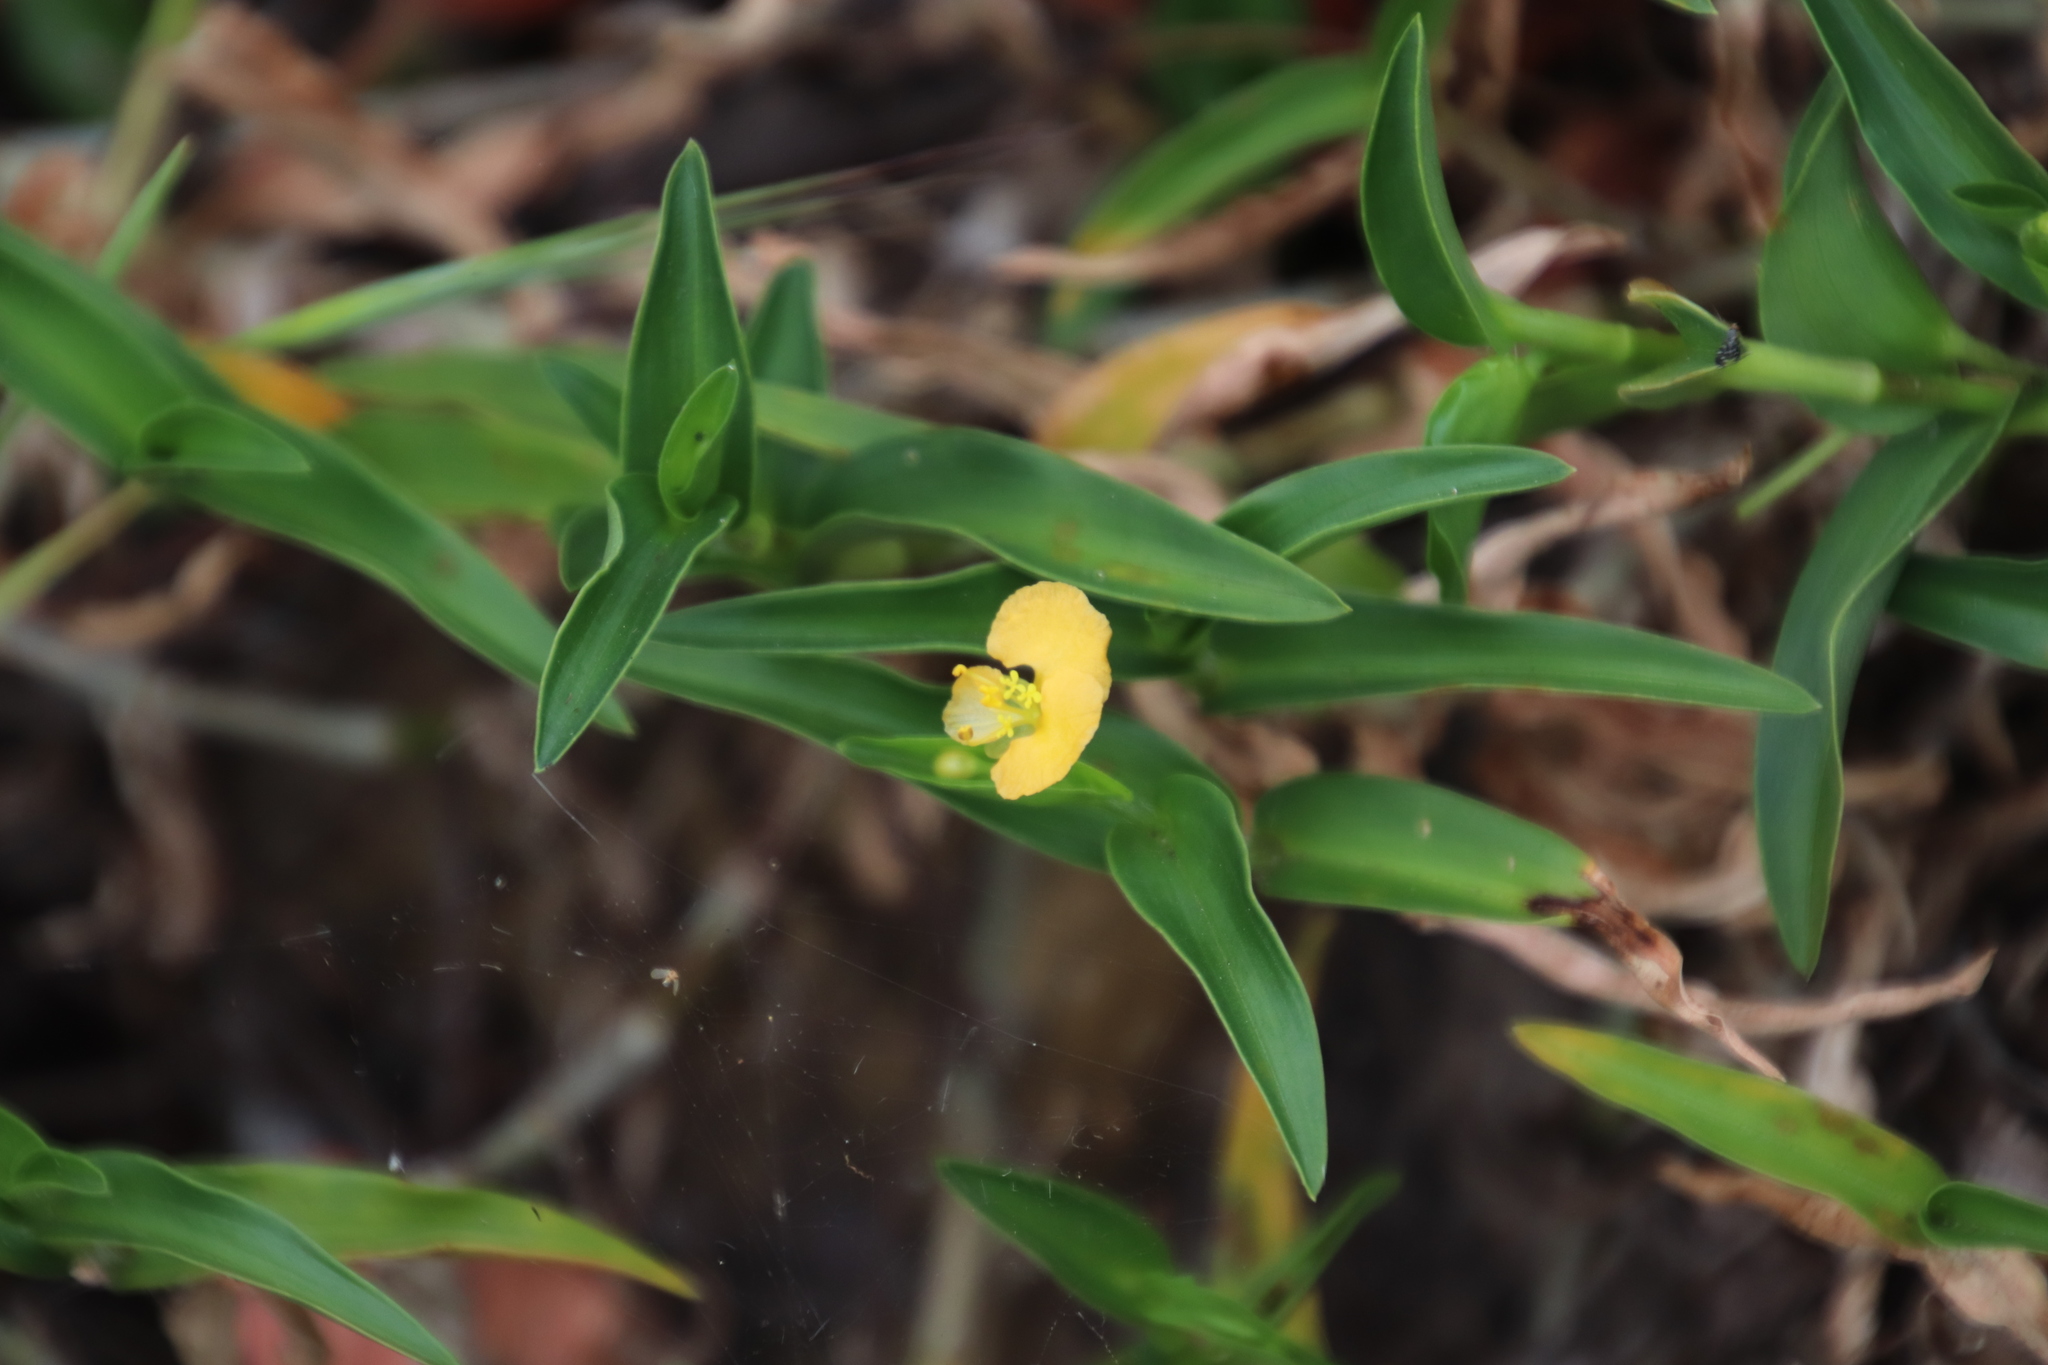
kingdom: Plantae
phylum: Tracheophyta
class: Liliopsida
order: Commelinales
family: Commelinaceae
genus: Commelina
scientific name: Commelina africana
